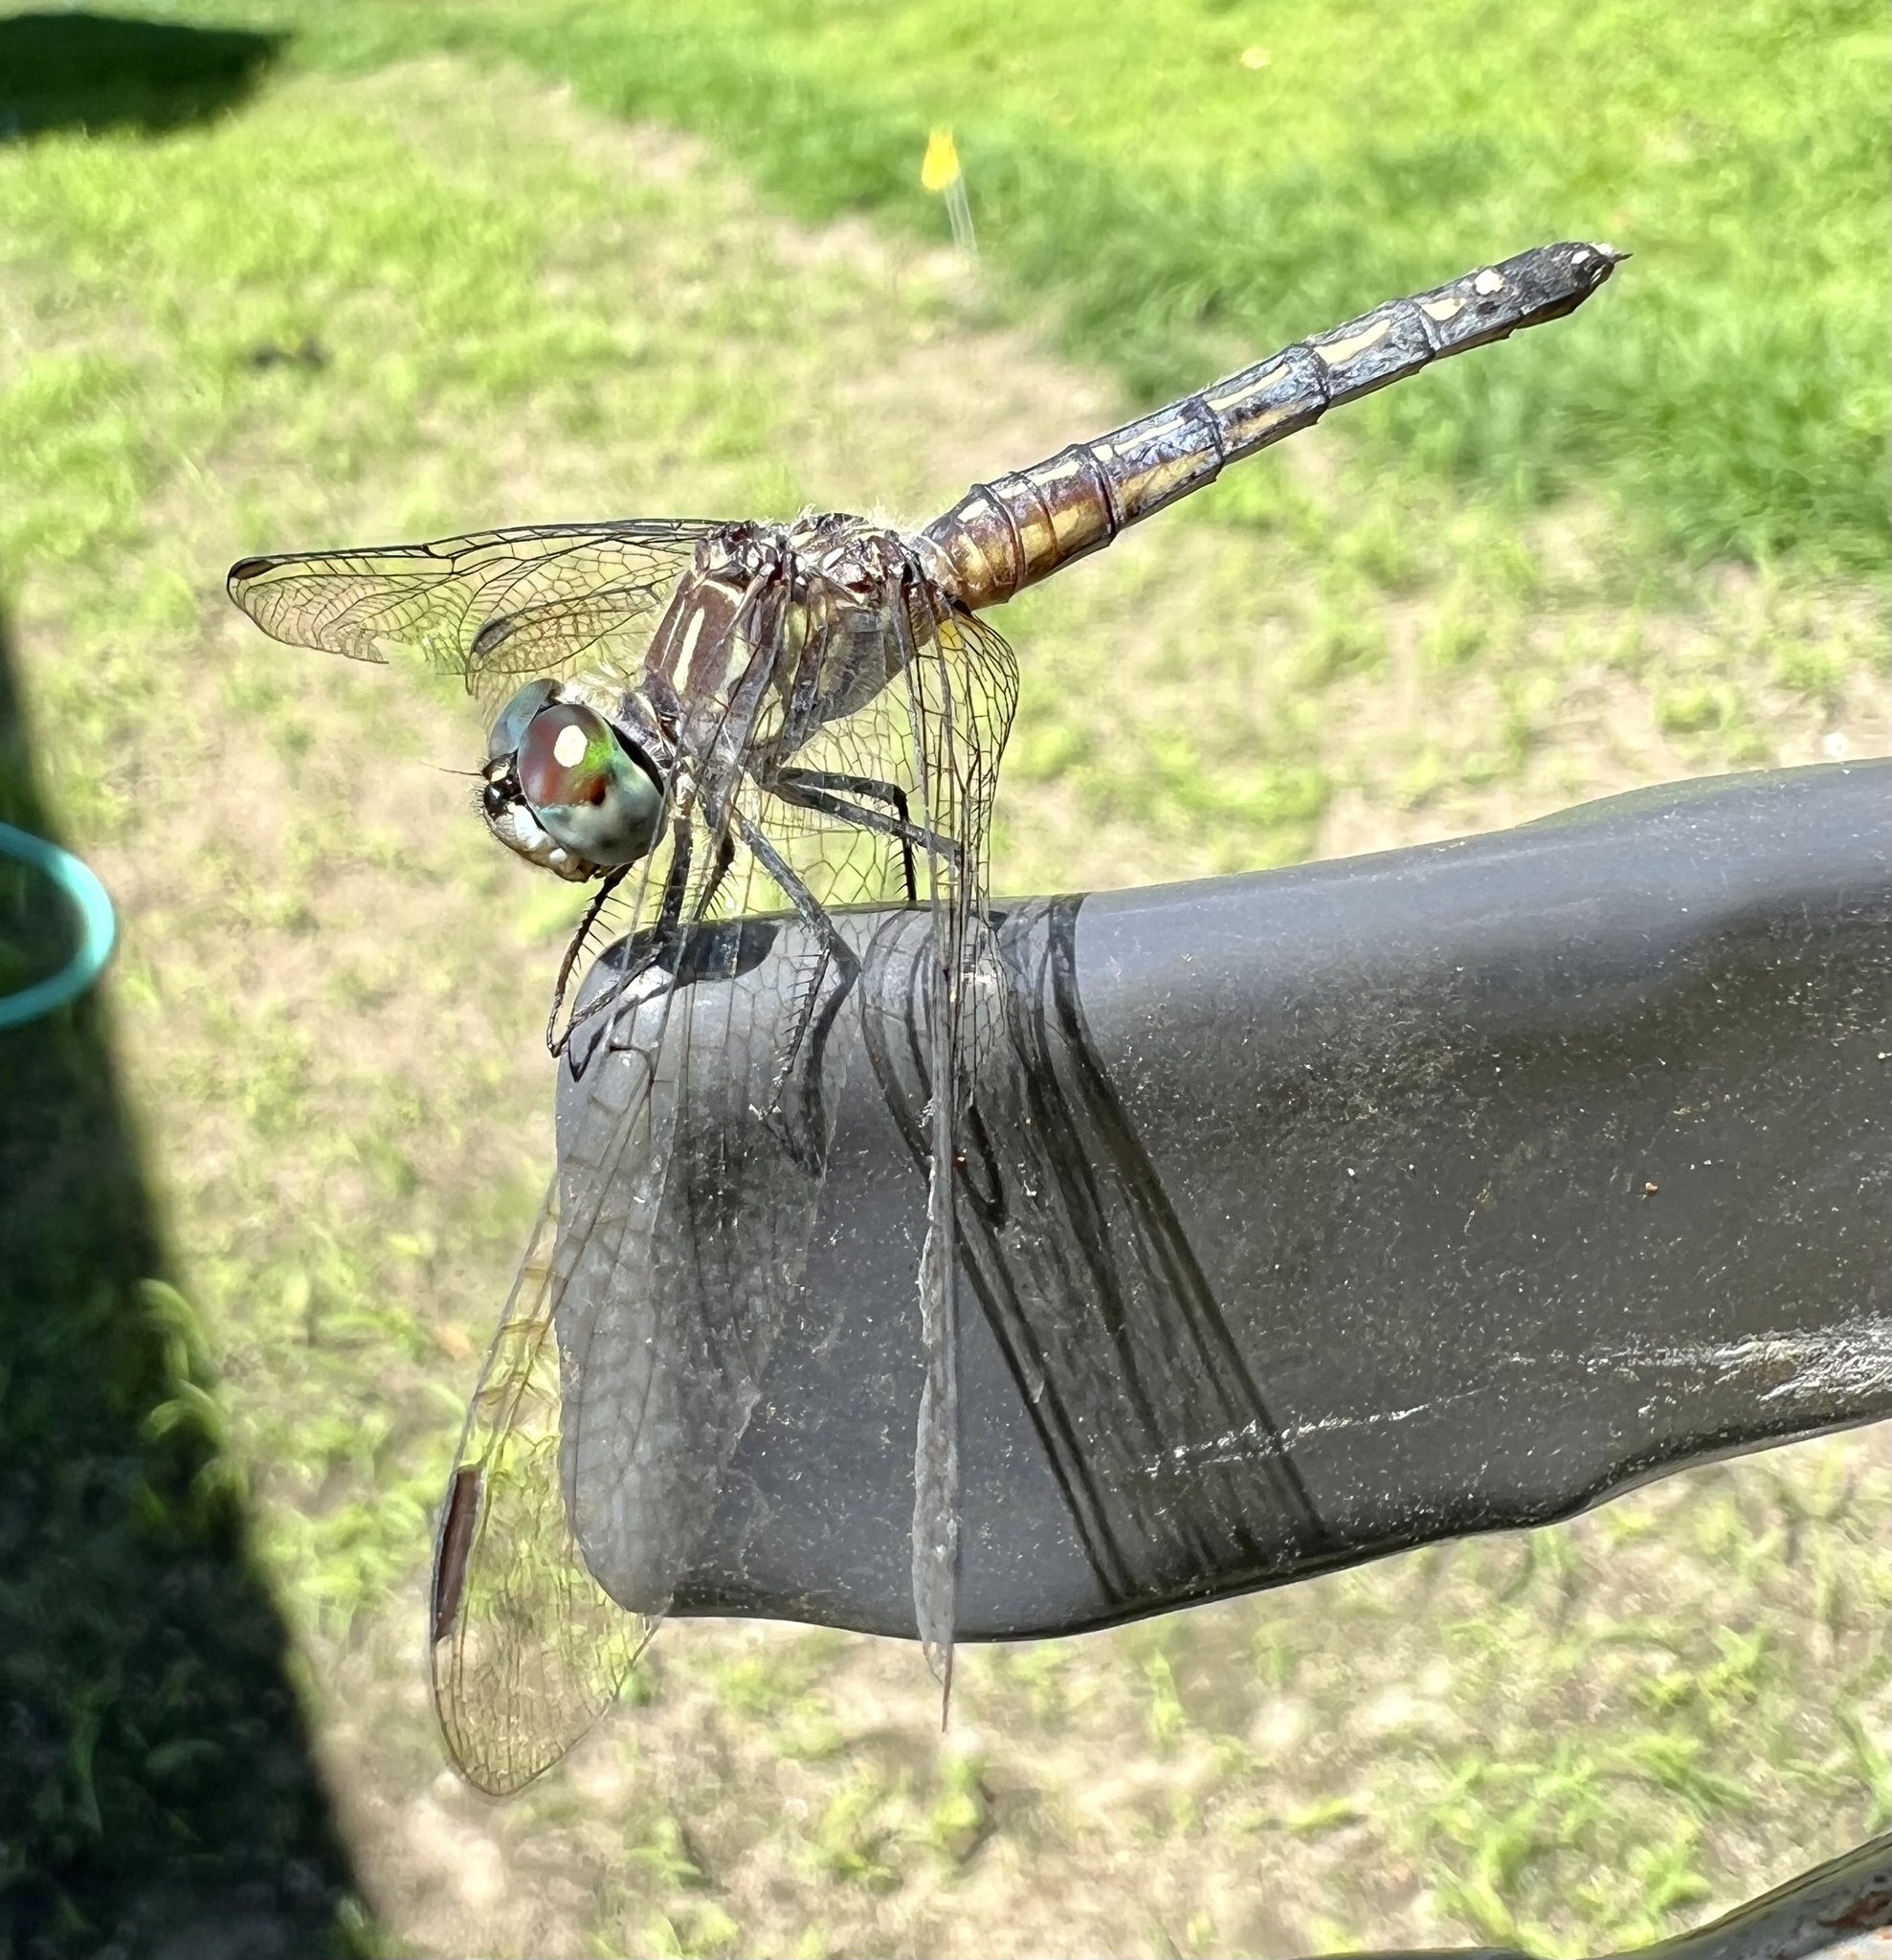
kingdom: Animalia
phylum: Arthropoda
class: Insecta
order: Odonata
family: Libellulidae
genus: Pachydiplax
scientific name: Pachydiplax longipennis
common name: Blue dasher
